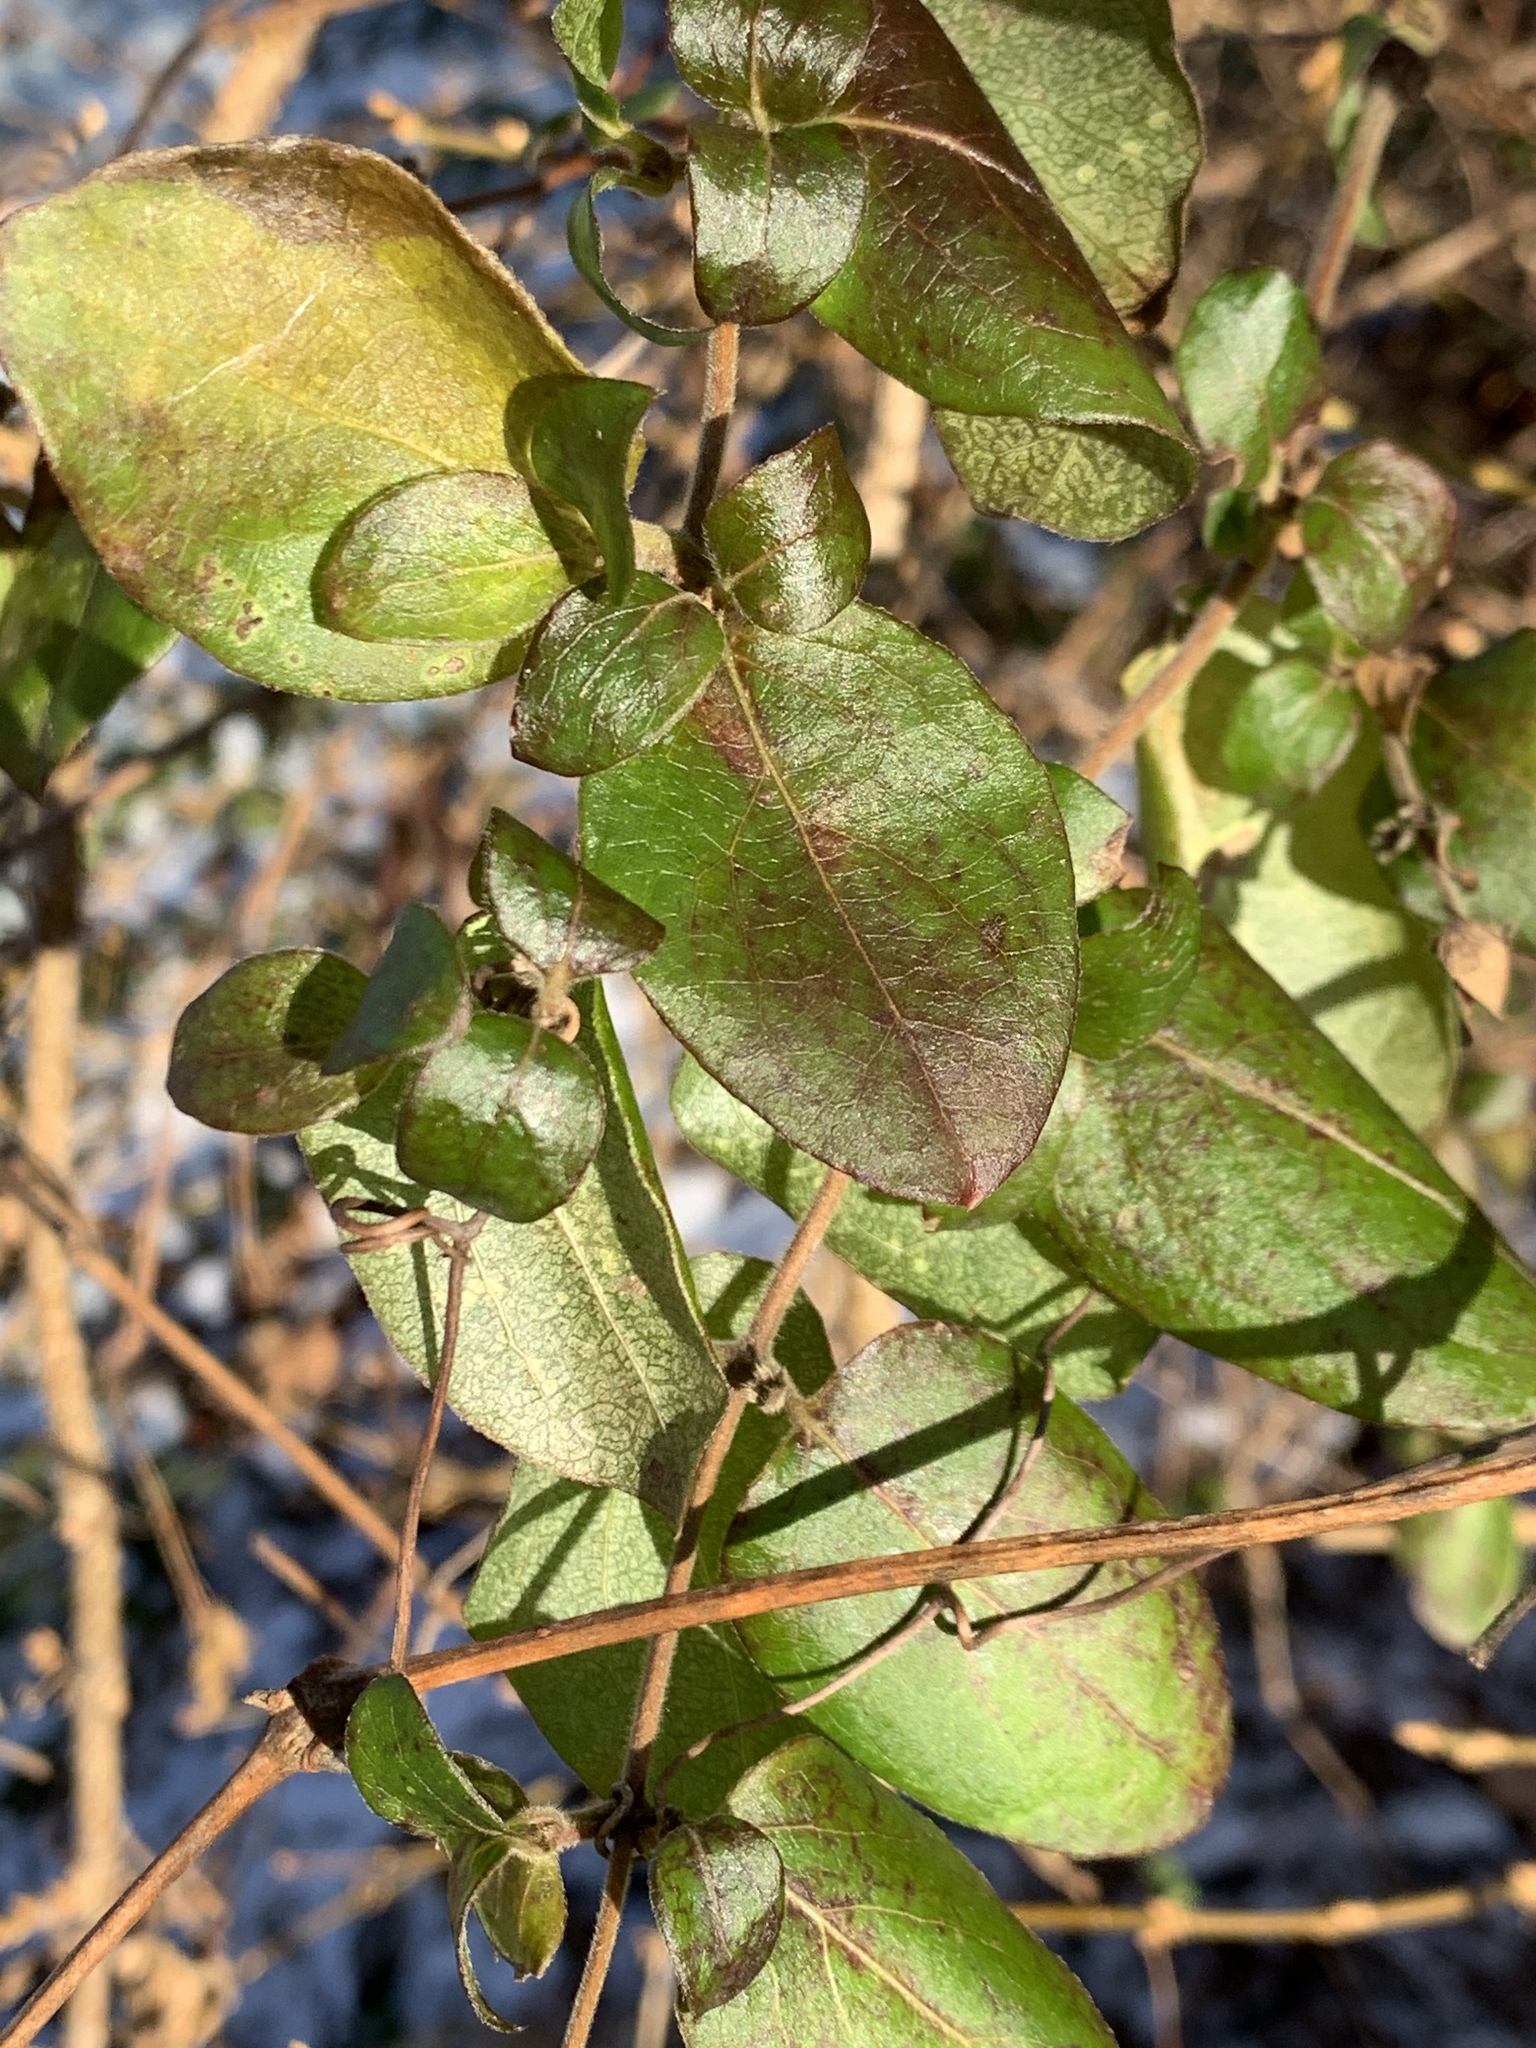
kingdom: Plantae
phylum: Tracheophyta
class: Magnoliopsida
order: Dipsacales
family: Caprifoliaceae
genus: Lonicera
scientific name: Lonicera japonica
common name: Japanese honeysuckle
